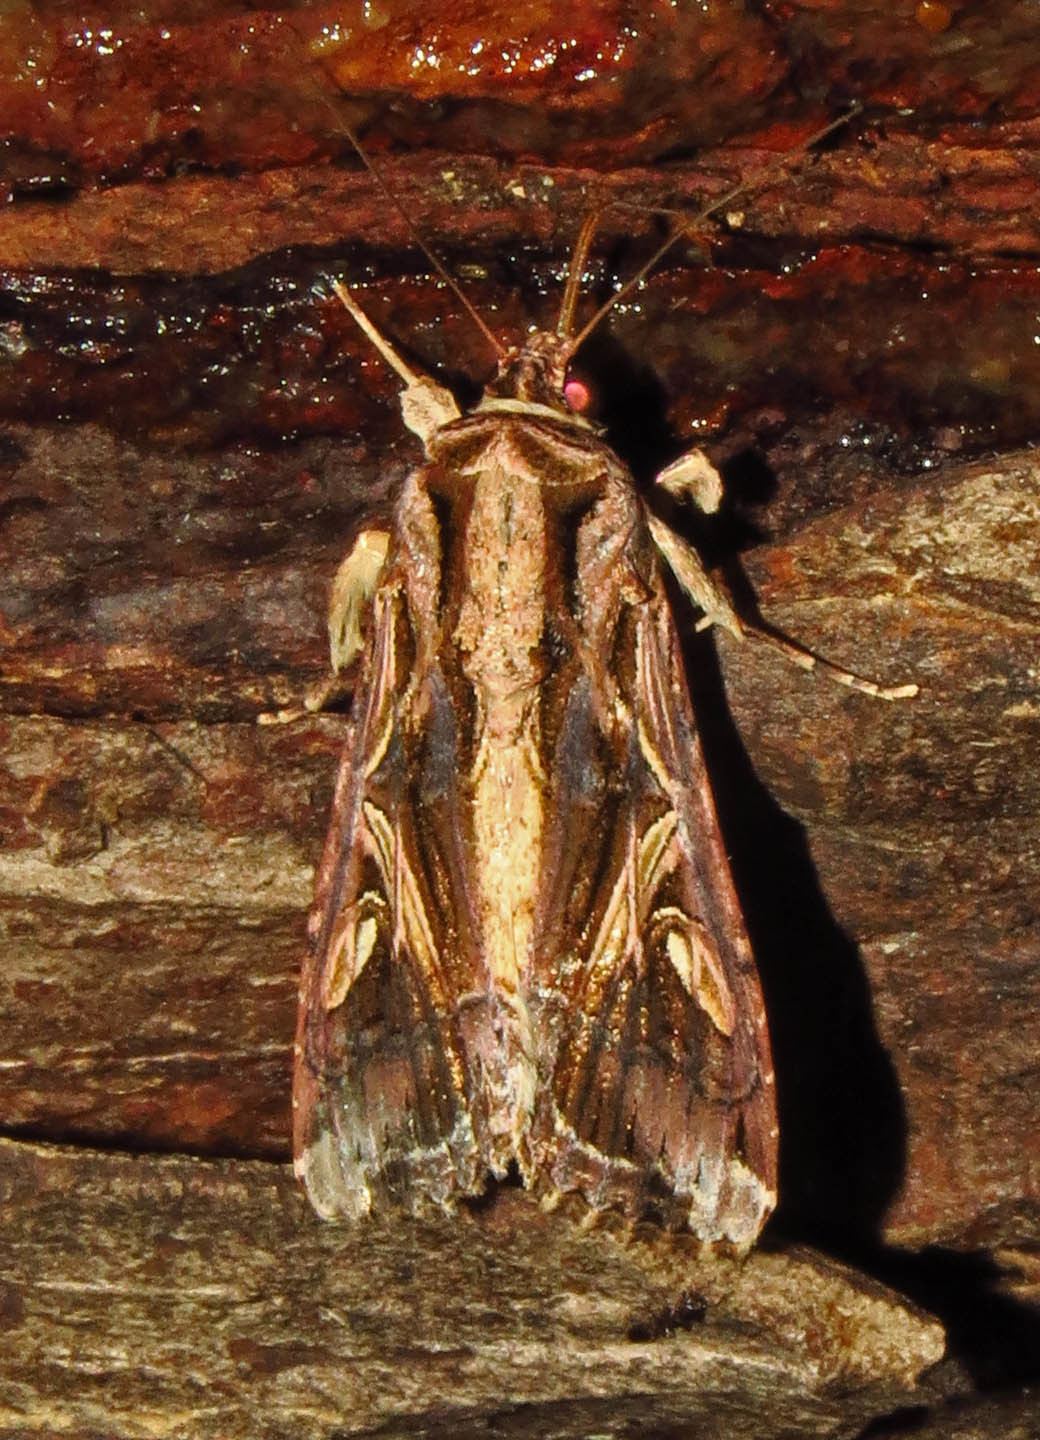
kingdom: Animalia
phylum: Arthropoda
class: Insecta
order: Lepidoptera
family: Noctuidae
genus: Spodoptera
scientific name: Spodoptera dolichos
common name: Sweetpotato armyworm
